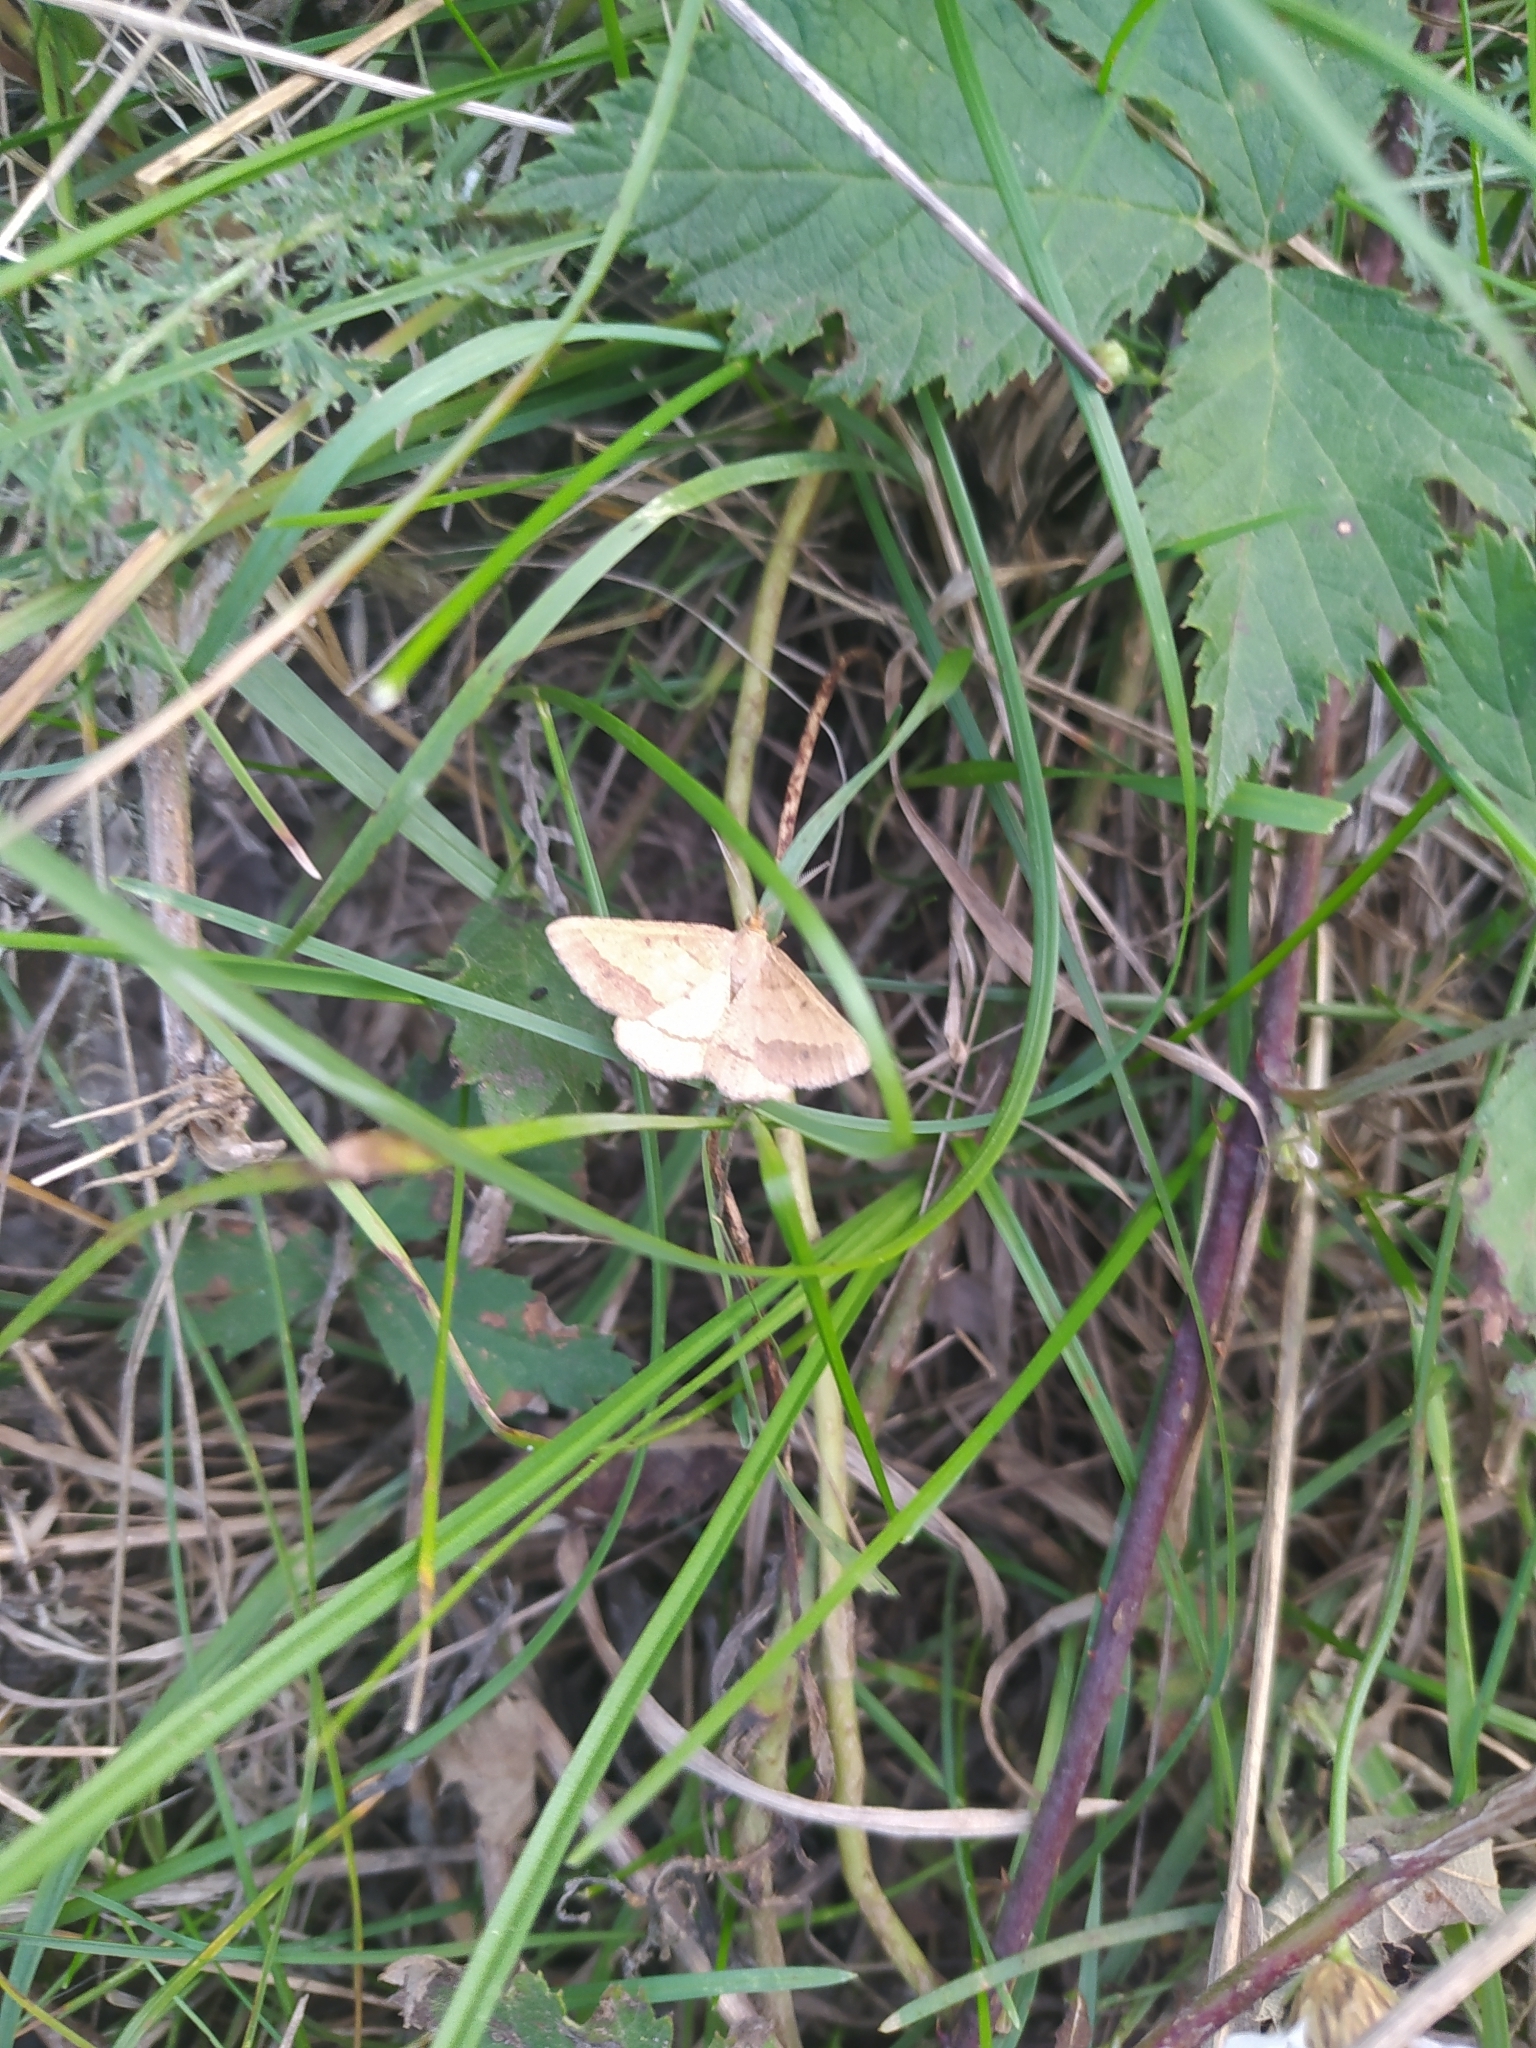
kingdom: Animalia
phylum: Arthropoda
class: Insecta
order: Lepidoptera
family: Geometridae
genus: Tephrina
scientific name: Tephrina arenacearia
